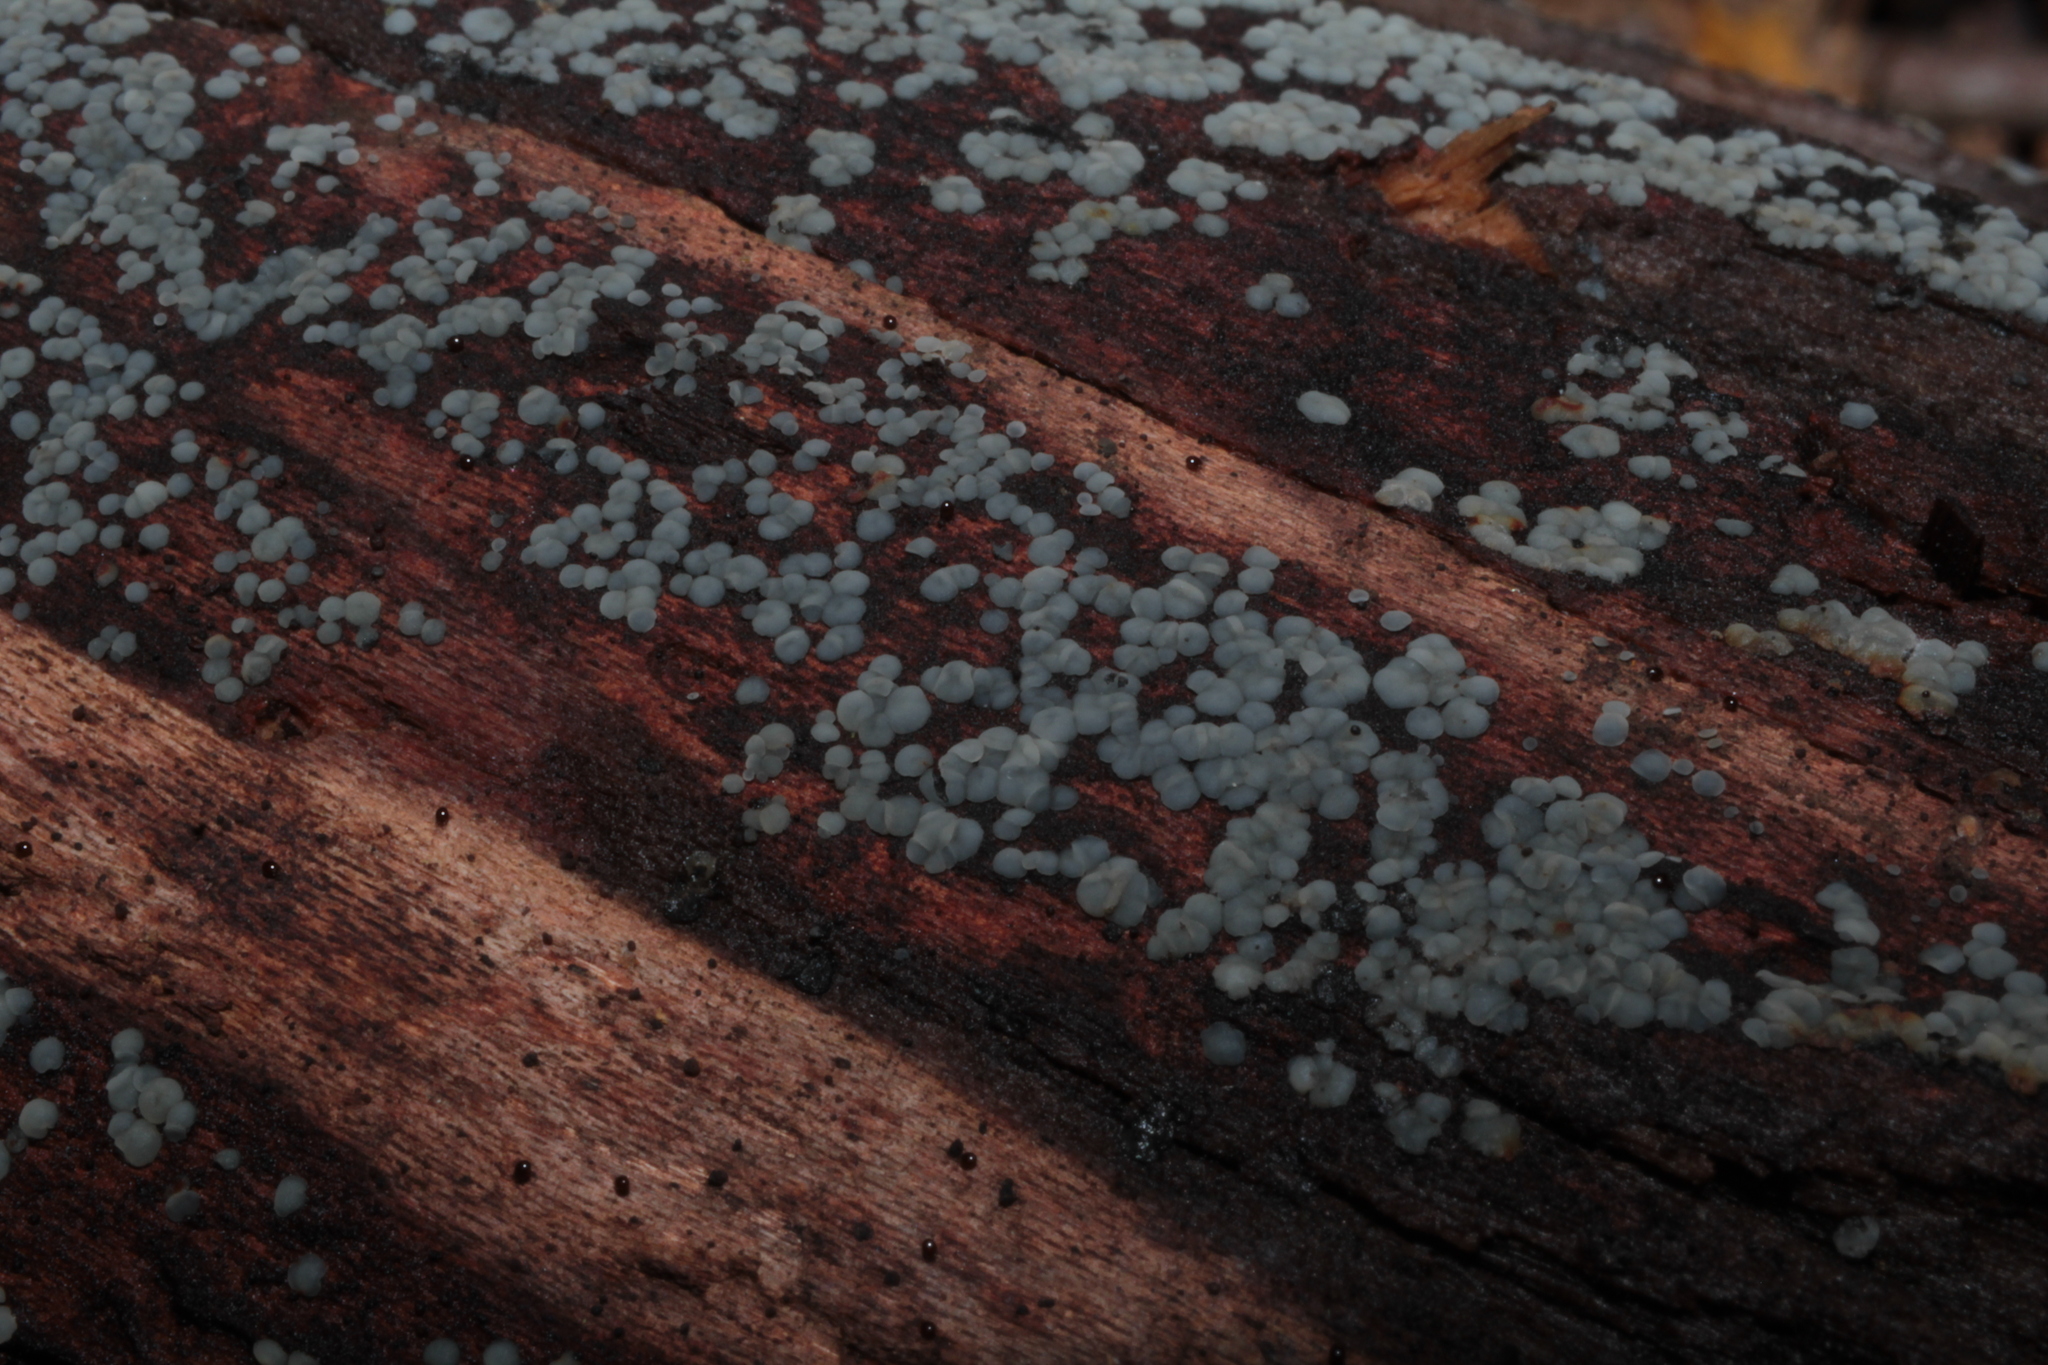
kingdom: Fungi
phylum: Ascomycota
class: Leotiomycetes
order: Helotiales
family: Mollisiaceae
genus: Mollisia
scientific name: Mollisia nigrescens
